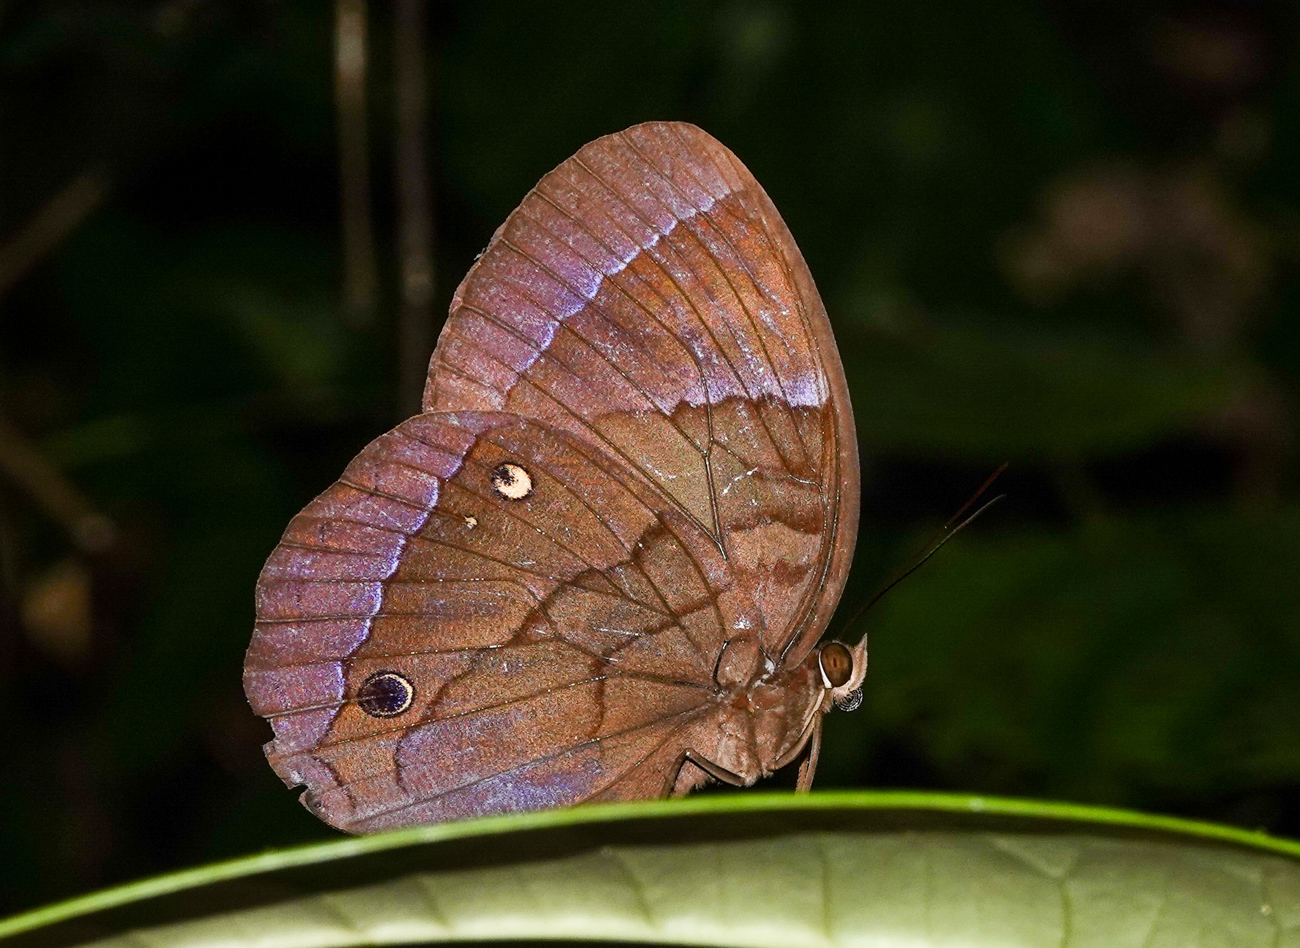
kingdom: Animalia
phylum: Arthropoda
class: Insecta
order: Lepidoptera
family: Nymphalidae
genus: Thaumantis
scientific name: Thaumantis diores
